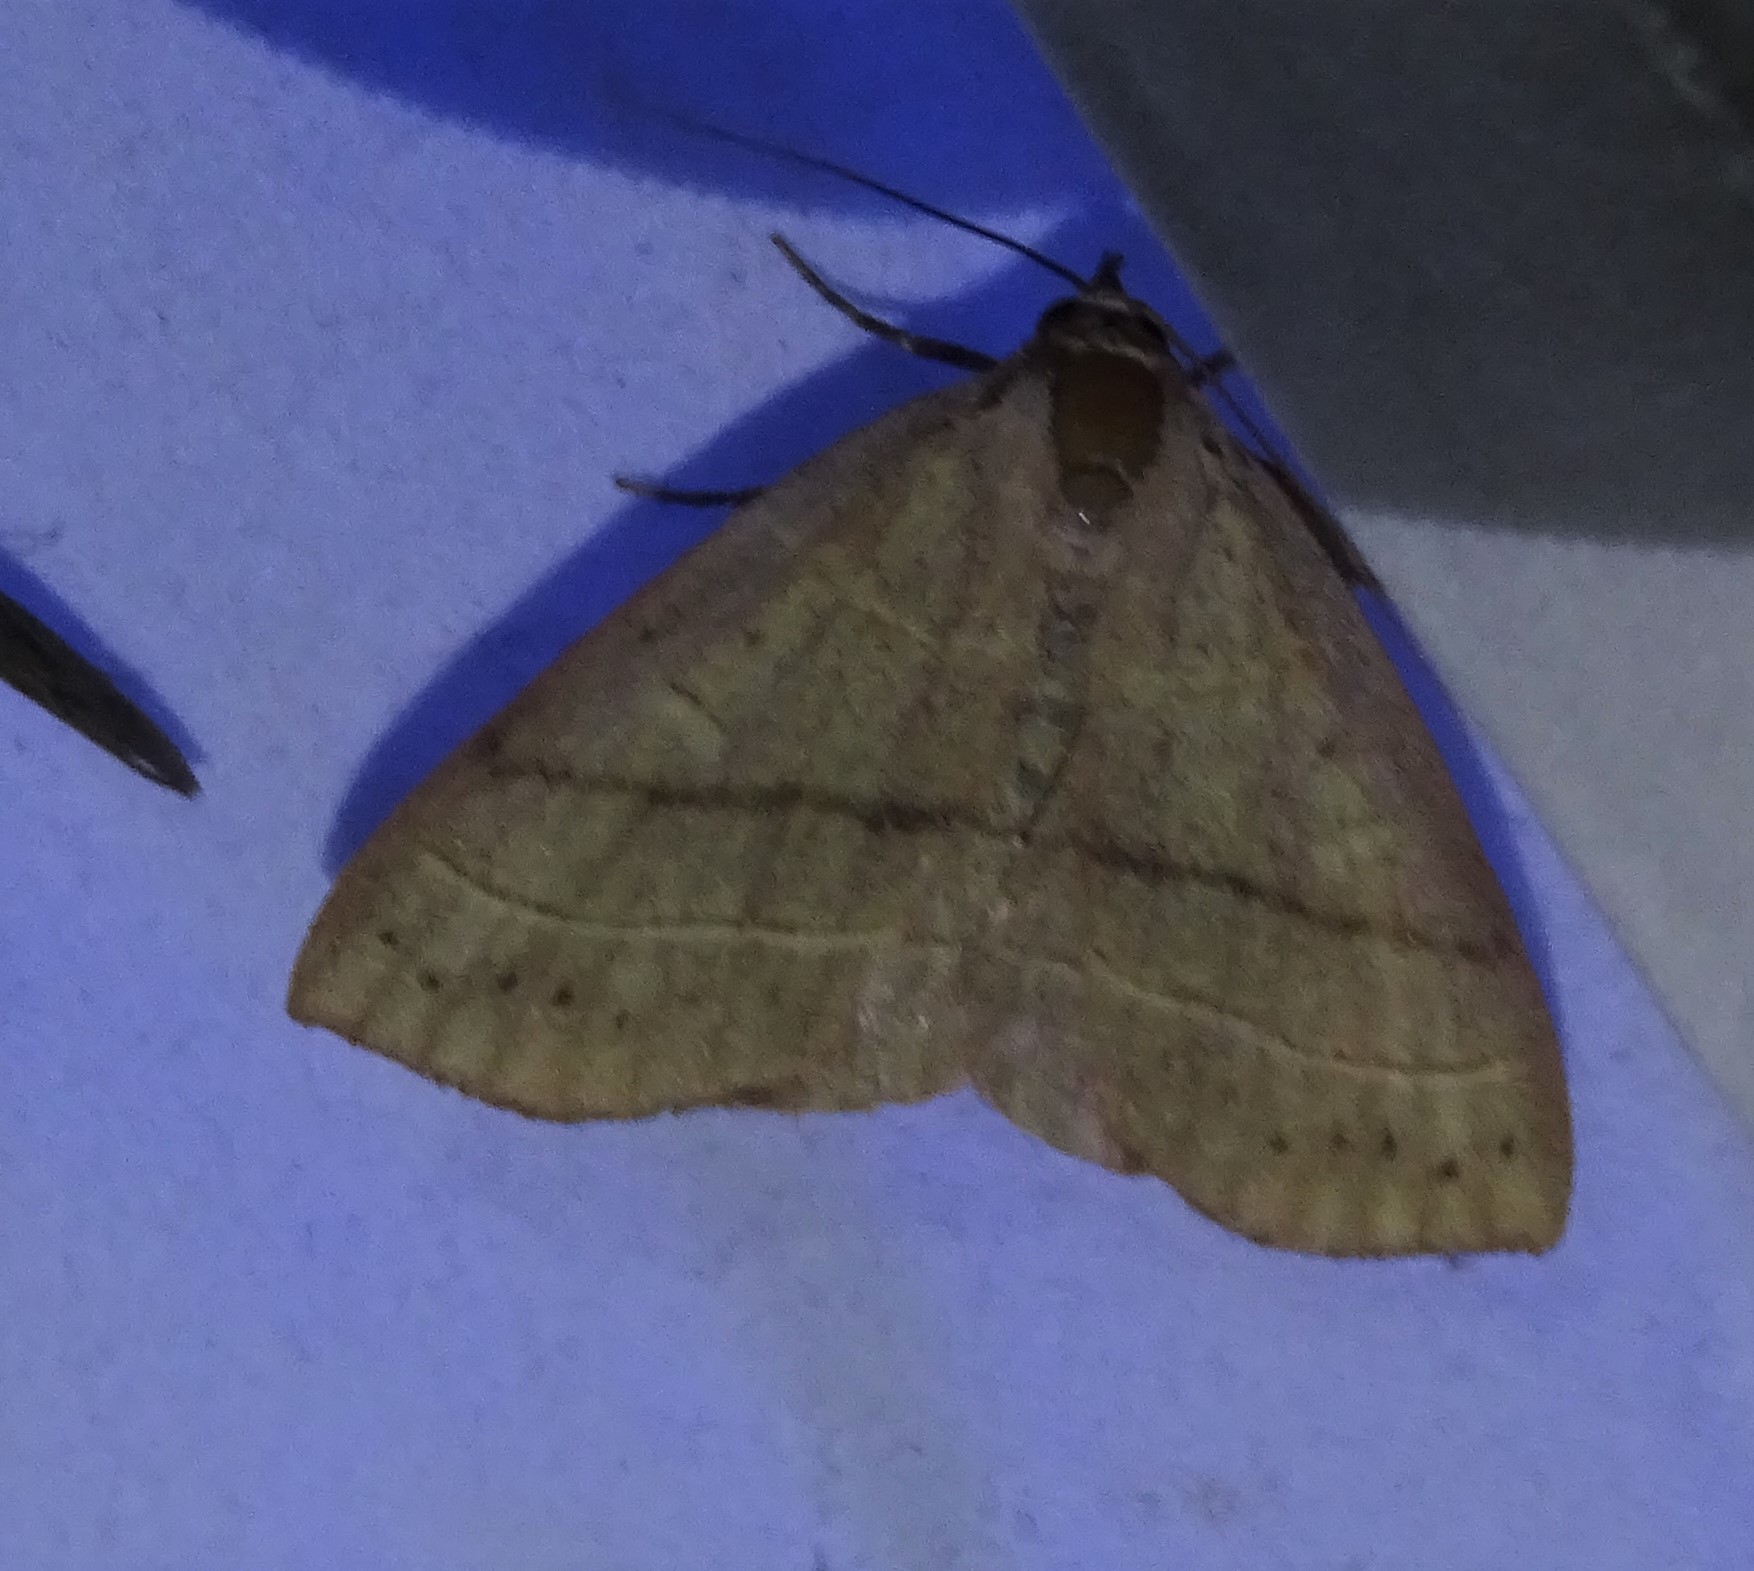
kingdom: Animalia
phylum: Arthropoda
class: Insecta
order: Lepidoptera
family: Erebidae
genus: Panopoda
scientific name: Panopoda rufimargo
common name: Red-lined panopoda moth
